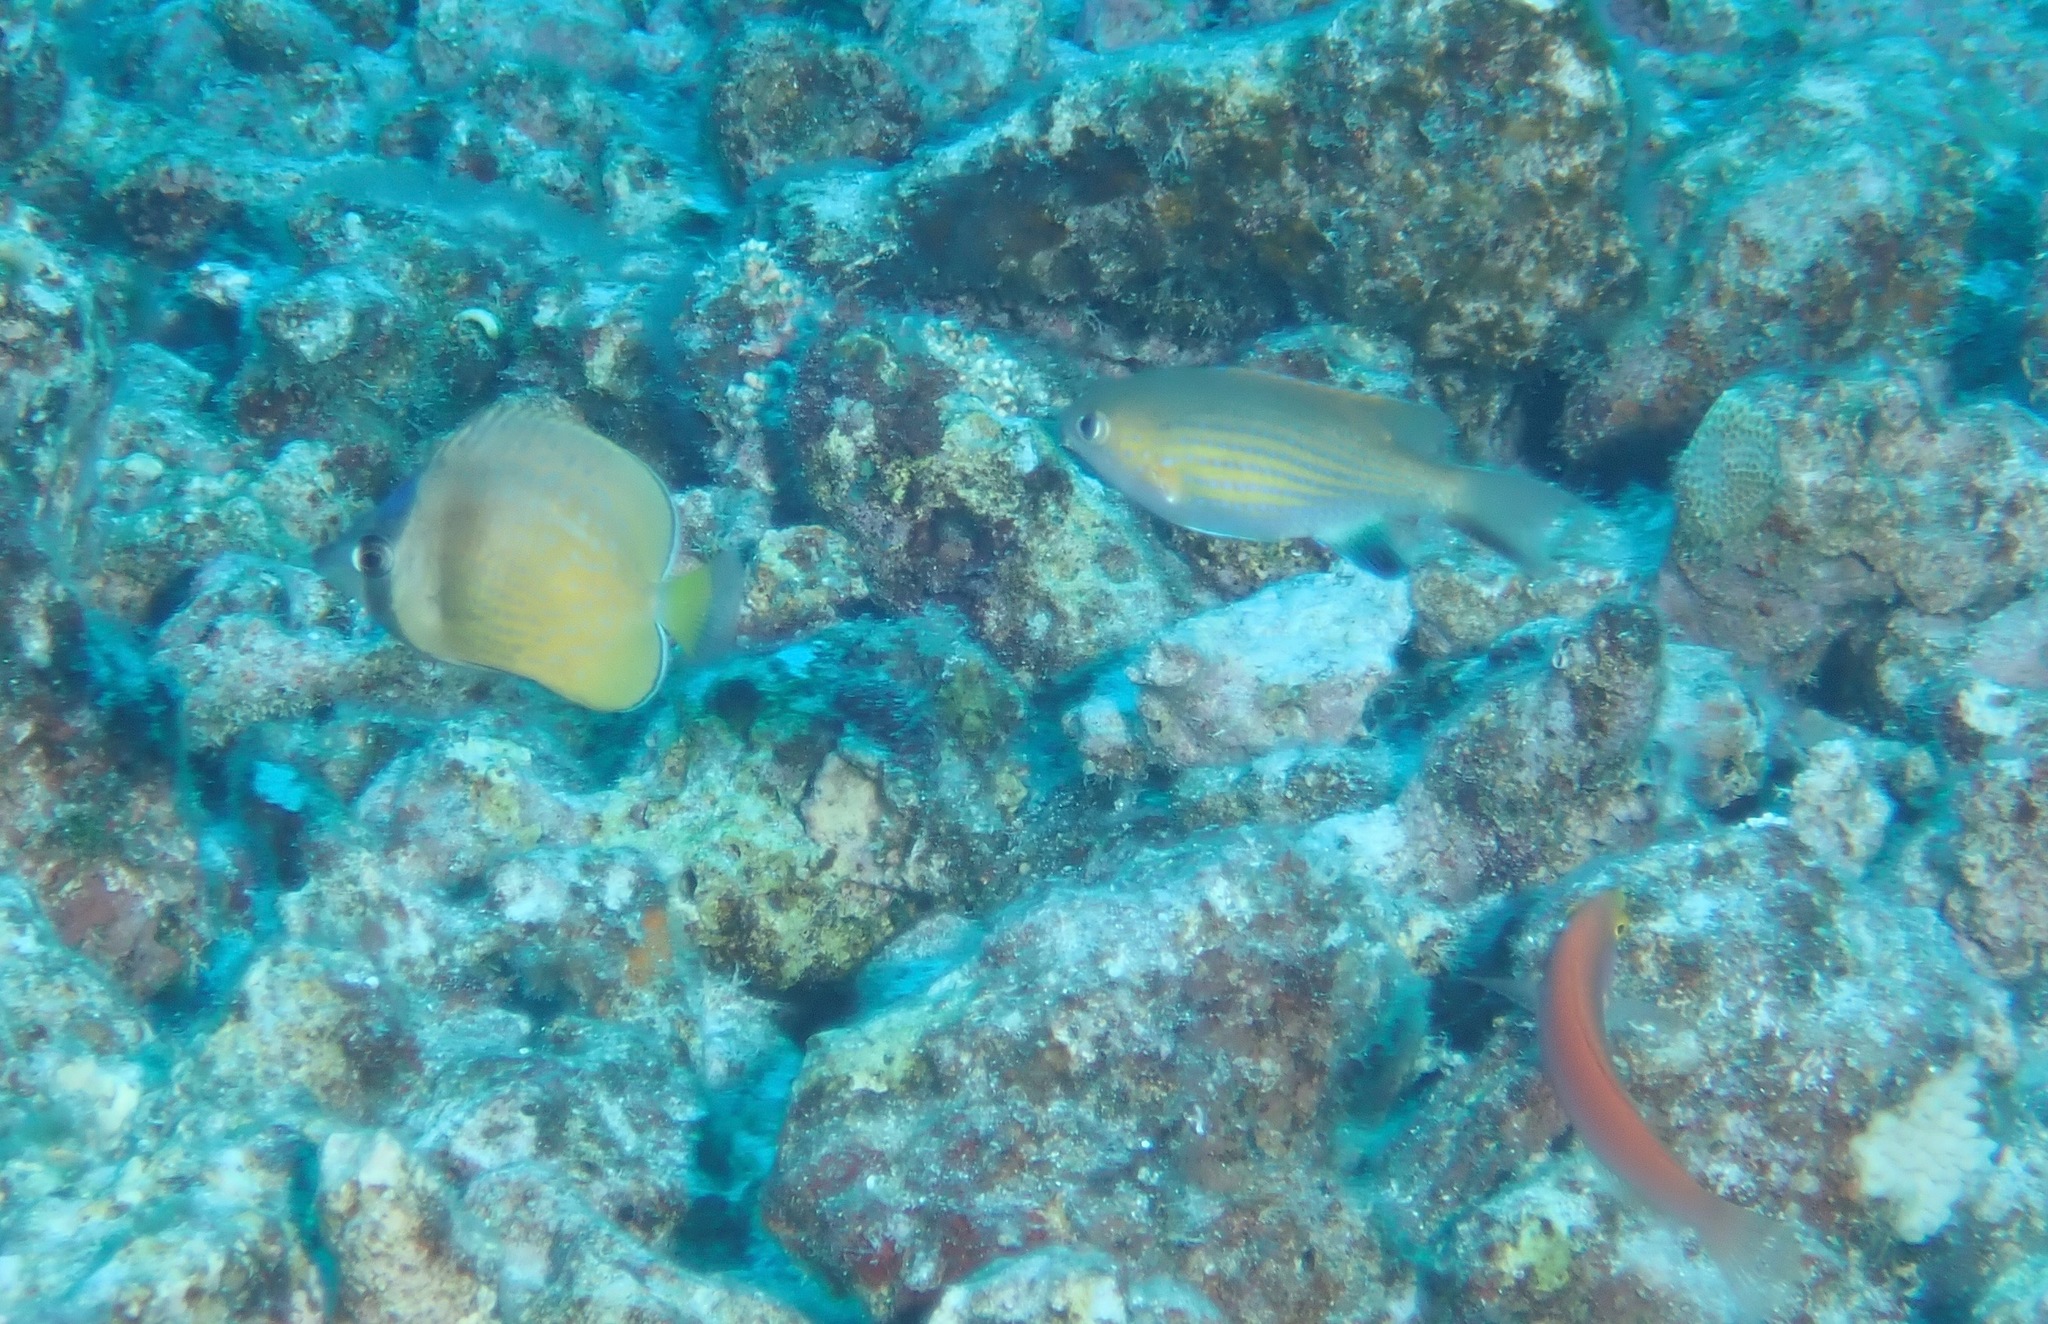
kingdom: Animalia
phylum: Chordata
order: Perciformes
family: Chaetodontidae
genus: Chaetodon
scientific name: Chaetodon kleinii
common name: Klein's butterflyfish
